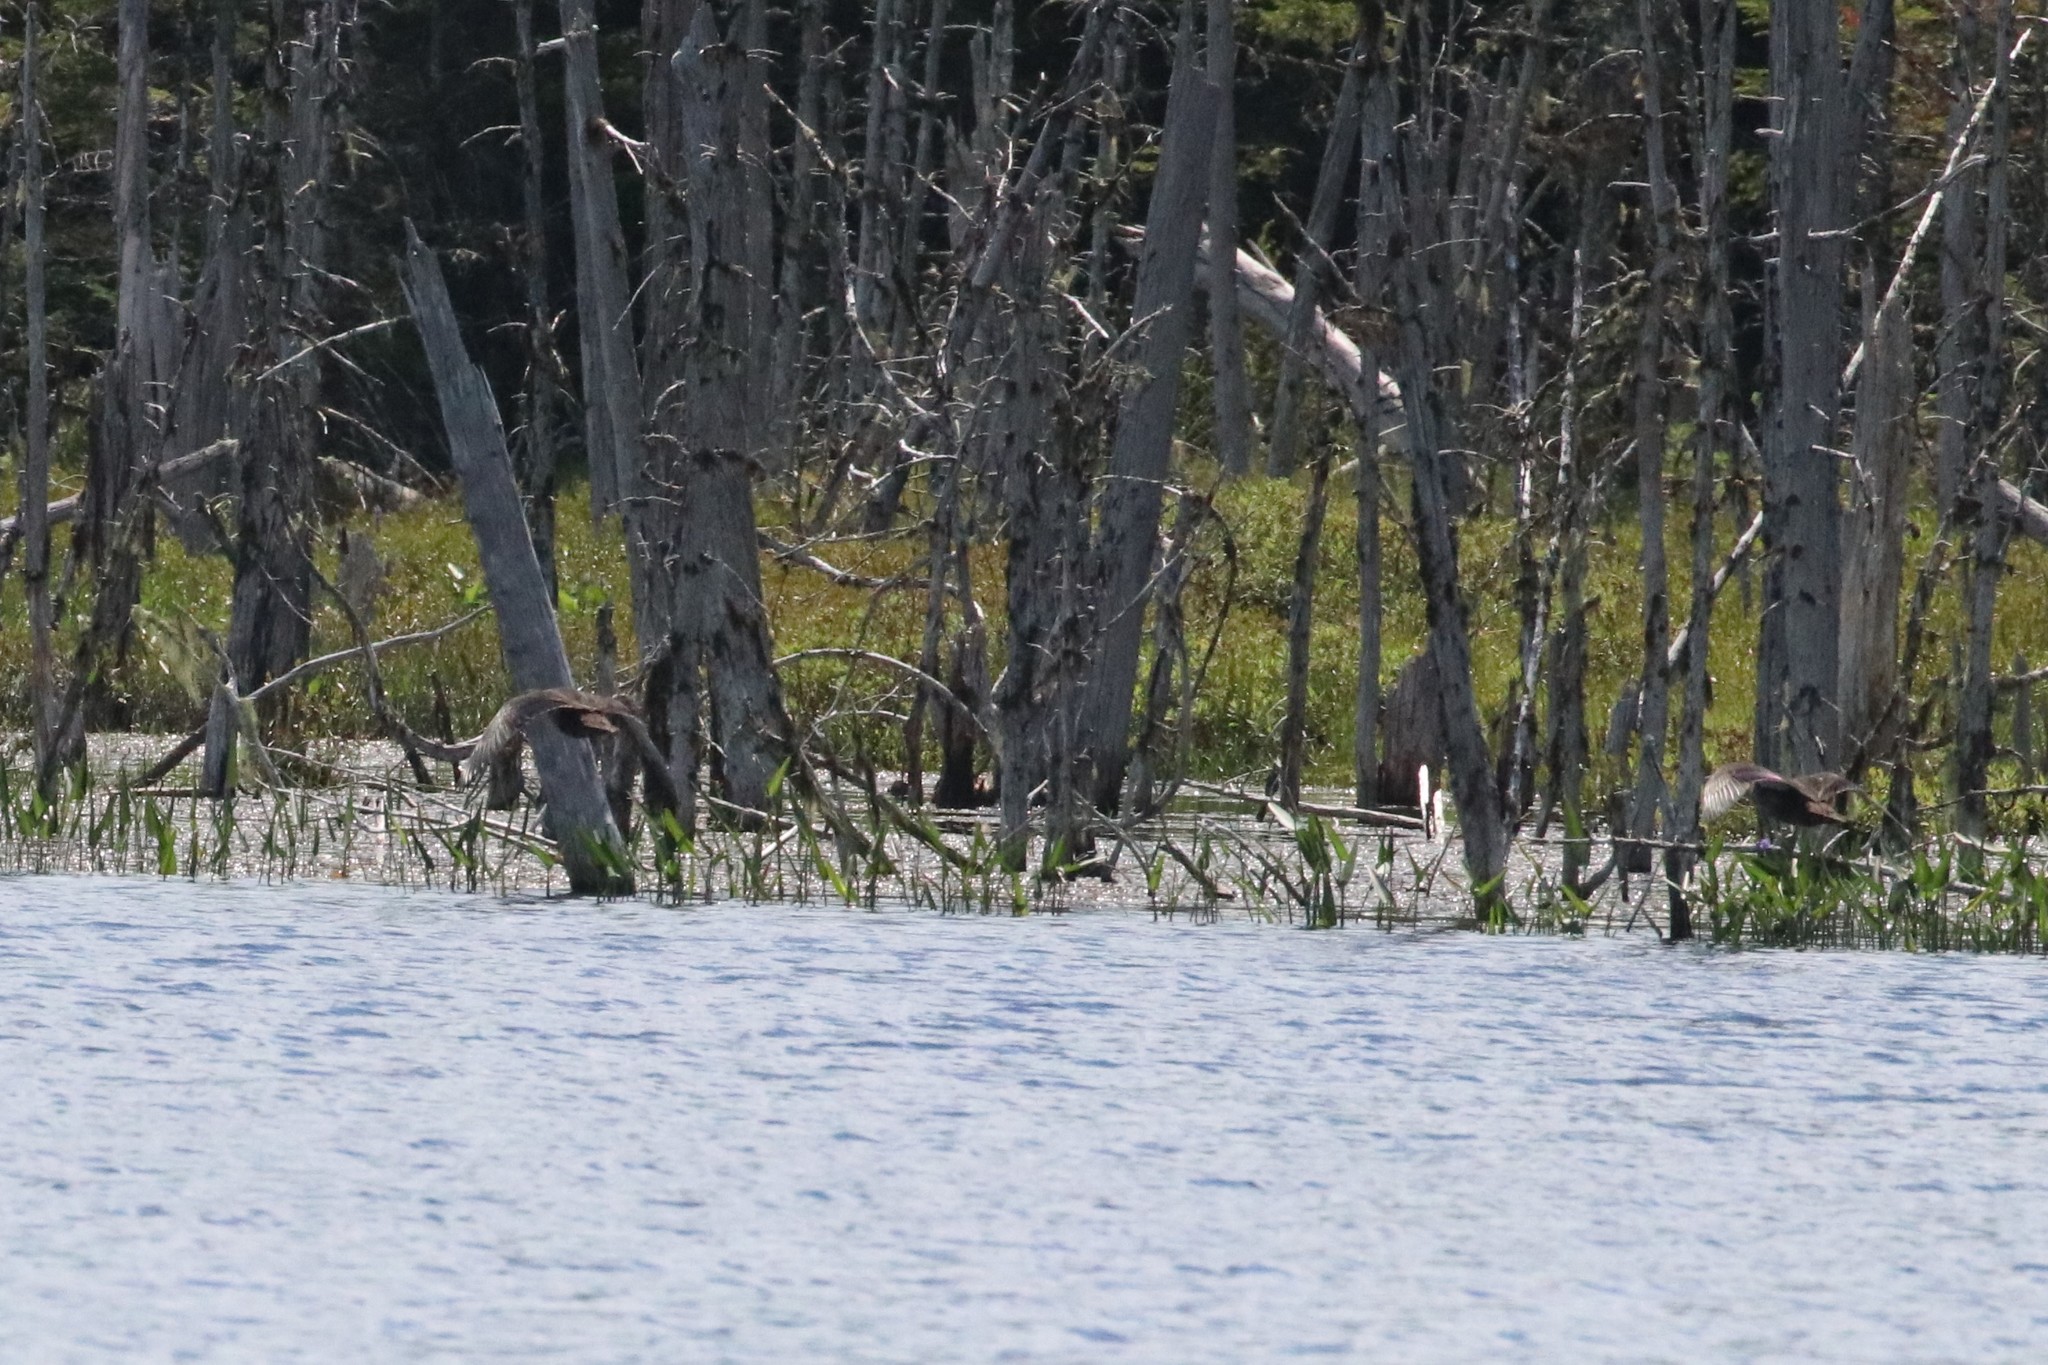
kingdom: Animalia
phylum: Chordata
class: Aves
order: Anseriformes
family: Anatidae
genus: Anas
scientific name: Anas rubripes
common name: American black duck
